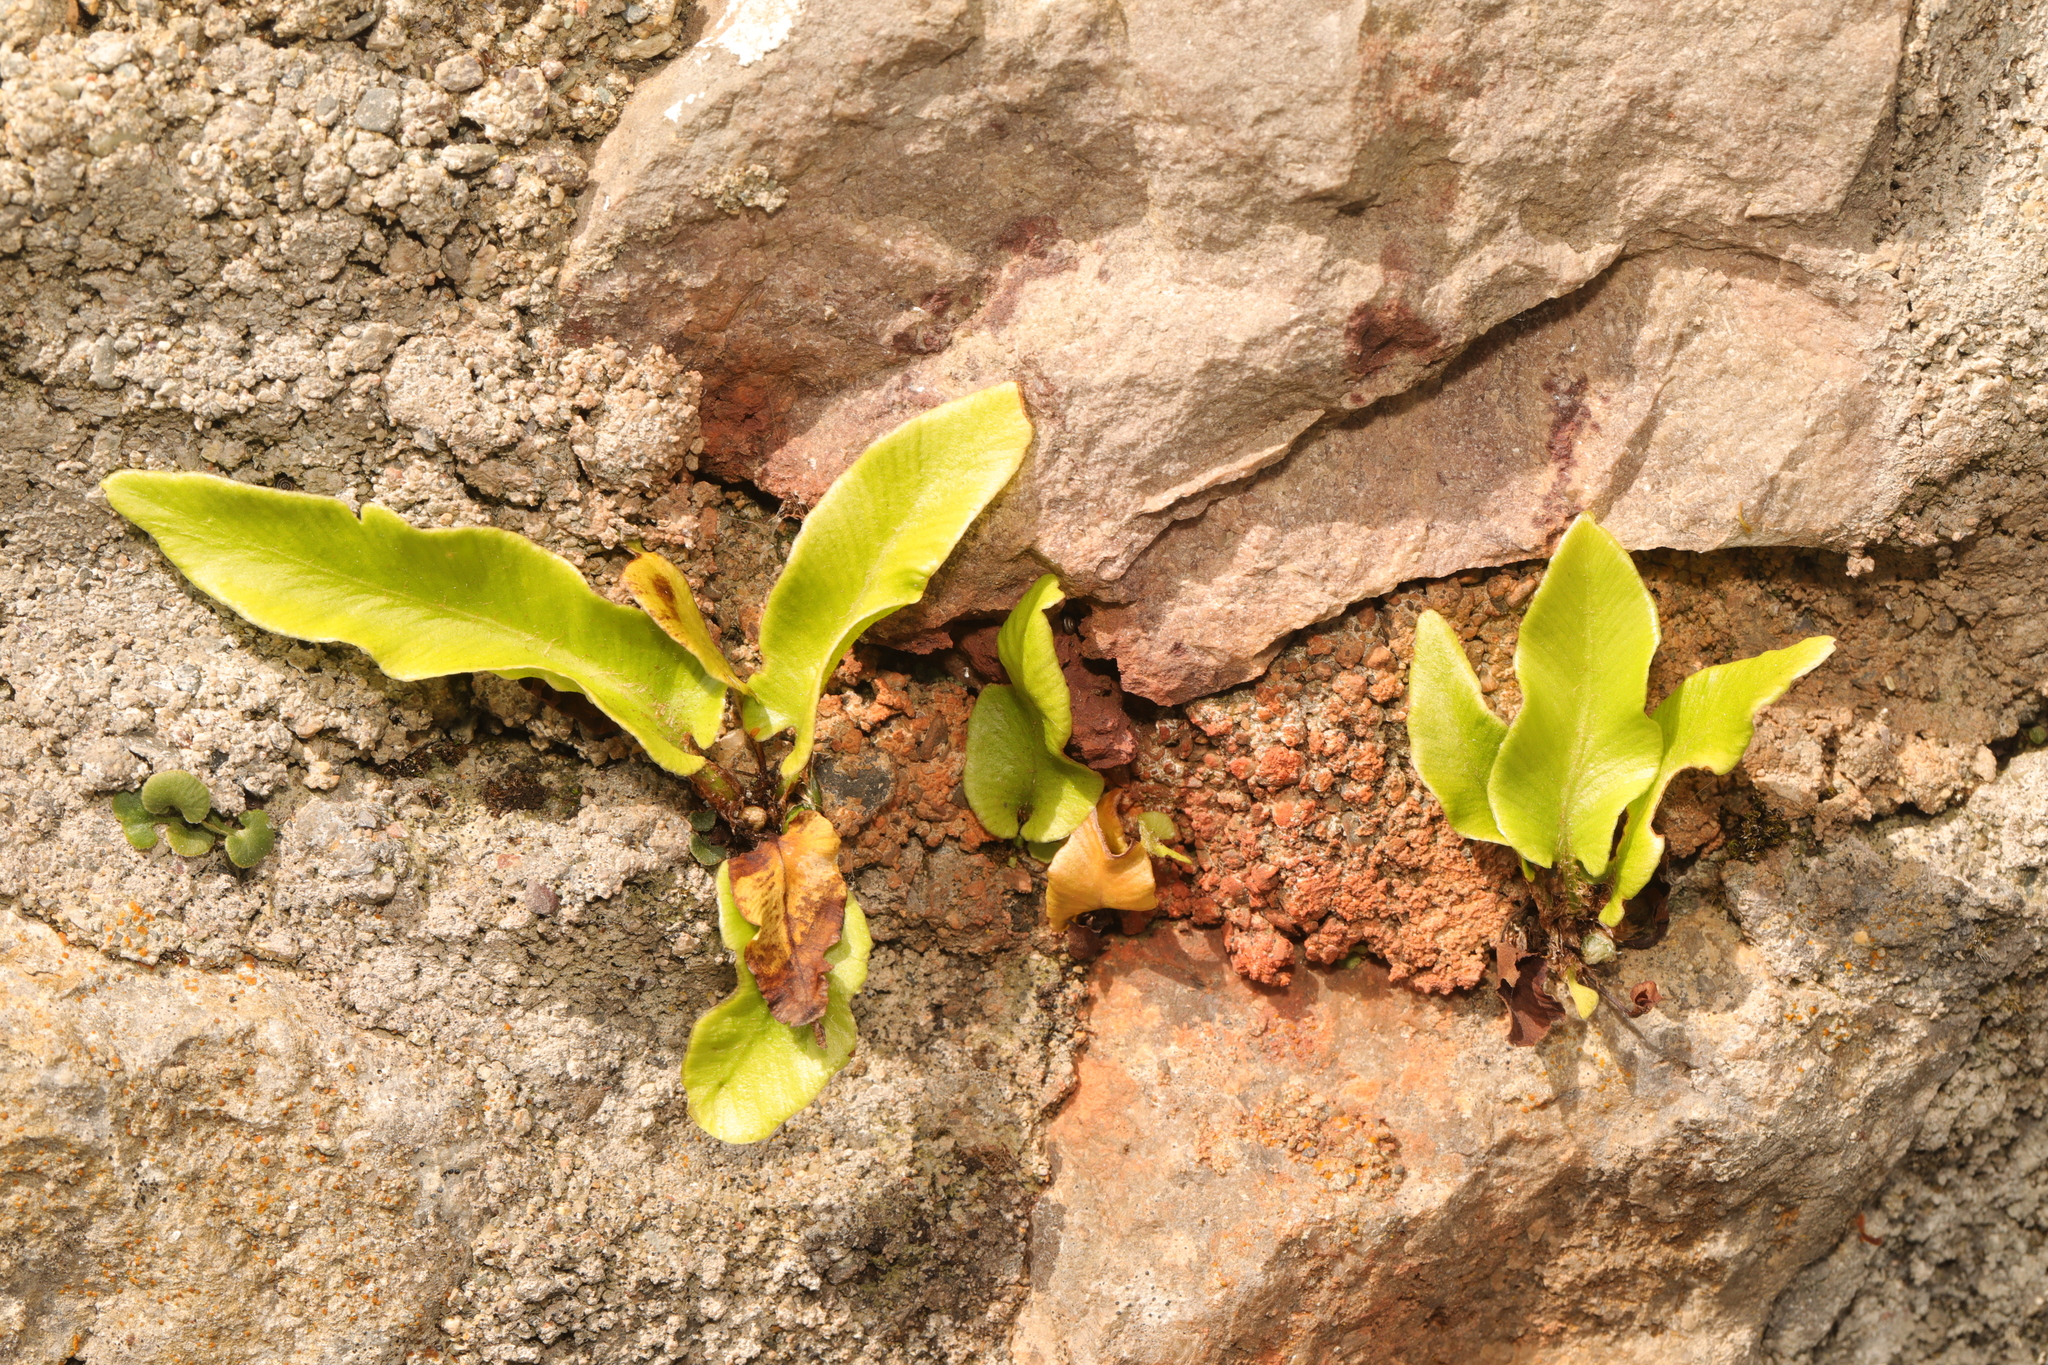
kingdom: Plantae
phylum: Tracheophyta
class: Polypodiopsida
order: Polypodiales
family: Aspleniaceae
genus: Asplenium
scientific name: Asplenium scolopendrium
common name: Hart's-tongue fern
